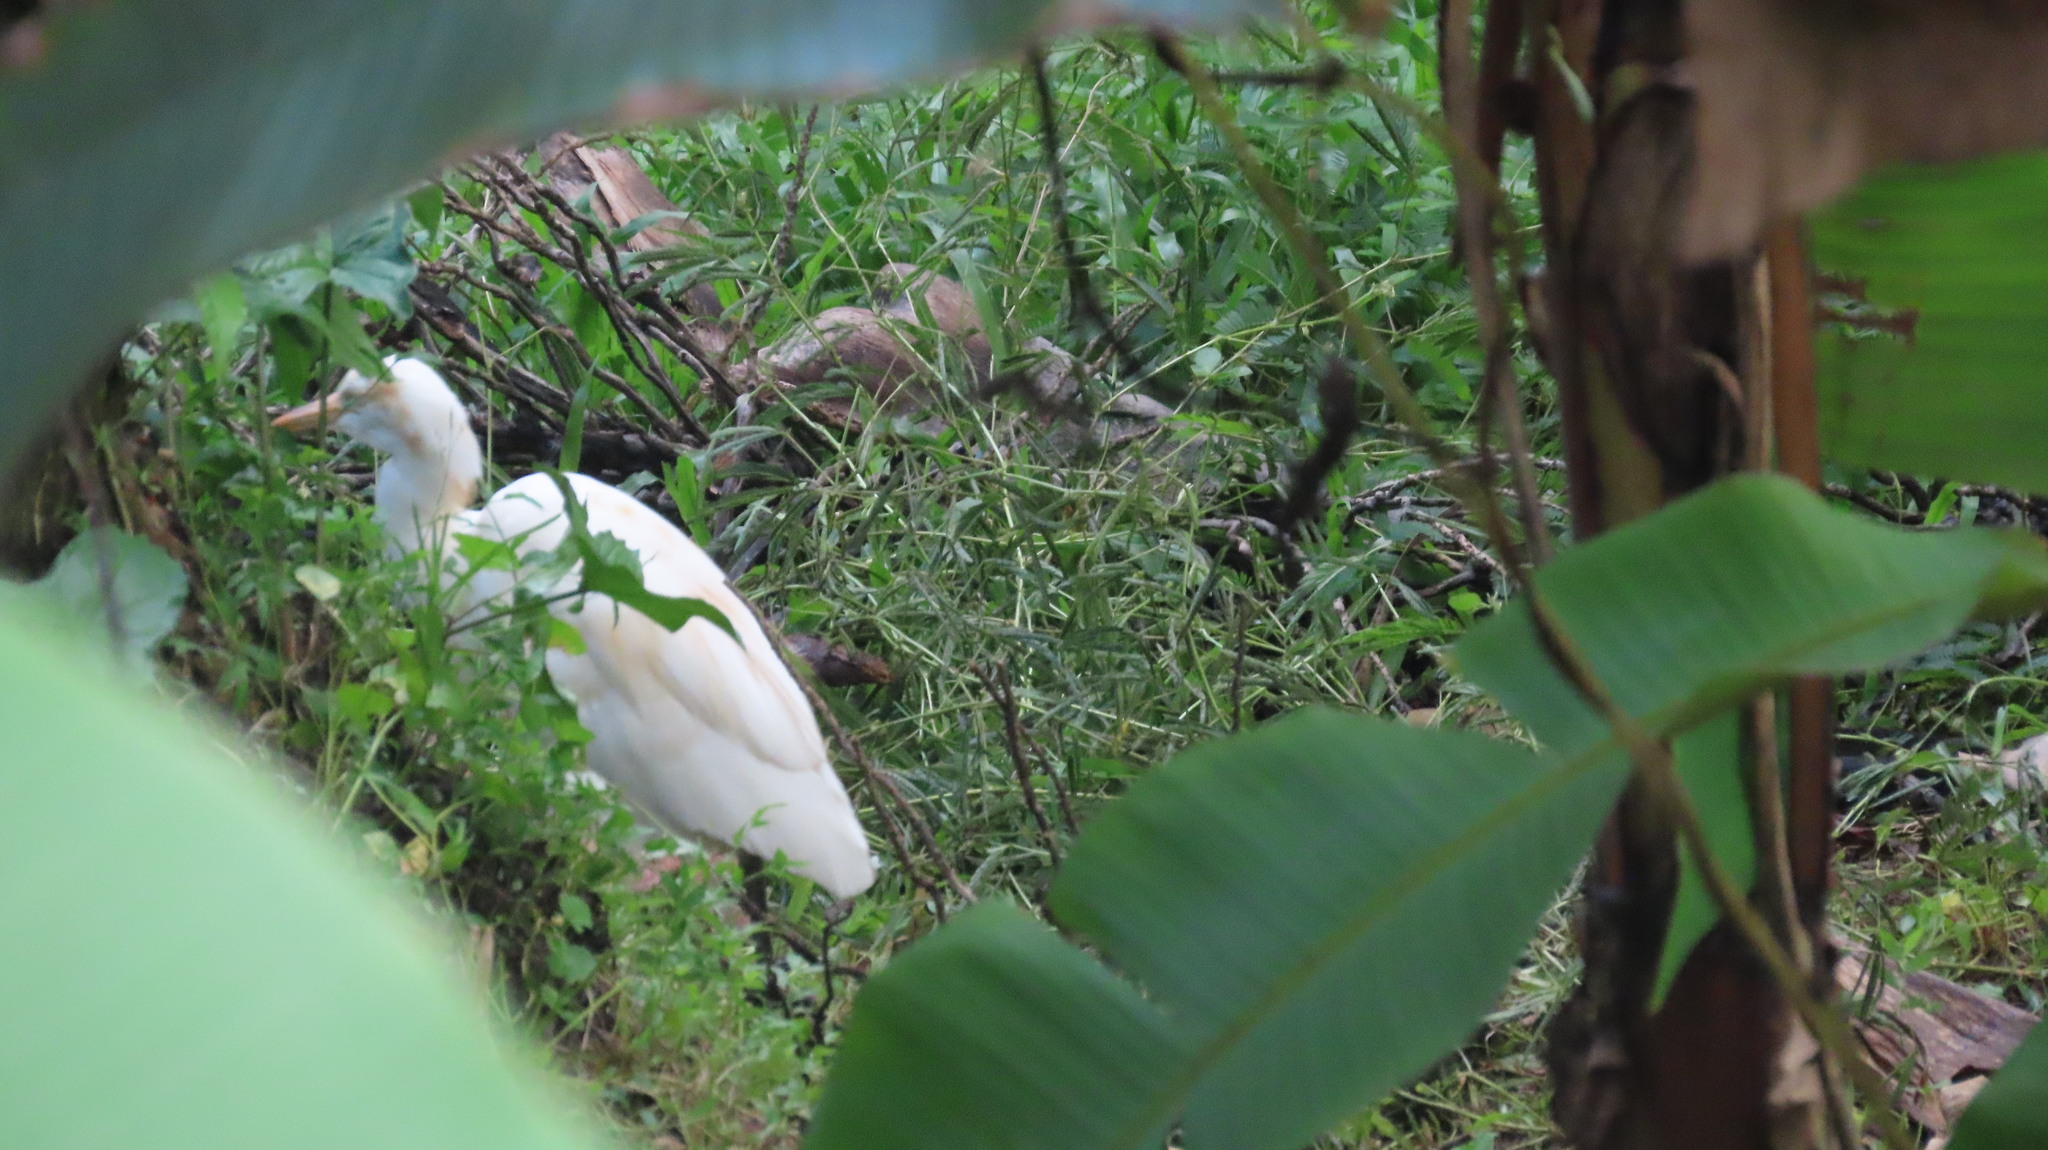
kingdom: Animalia
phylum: Chordata
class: Aves
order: Pelecaniformes
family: Ardeidae
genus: Bubulcus
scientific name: Bubulcus coromandus
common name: Eastern cattle egret
